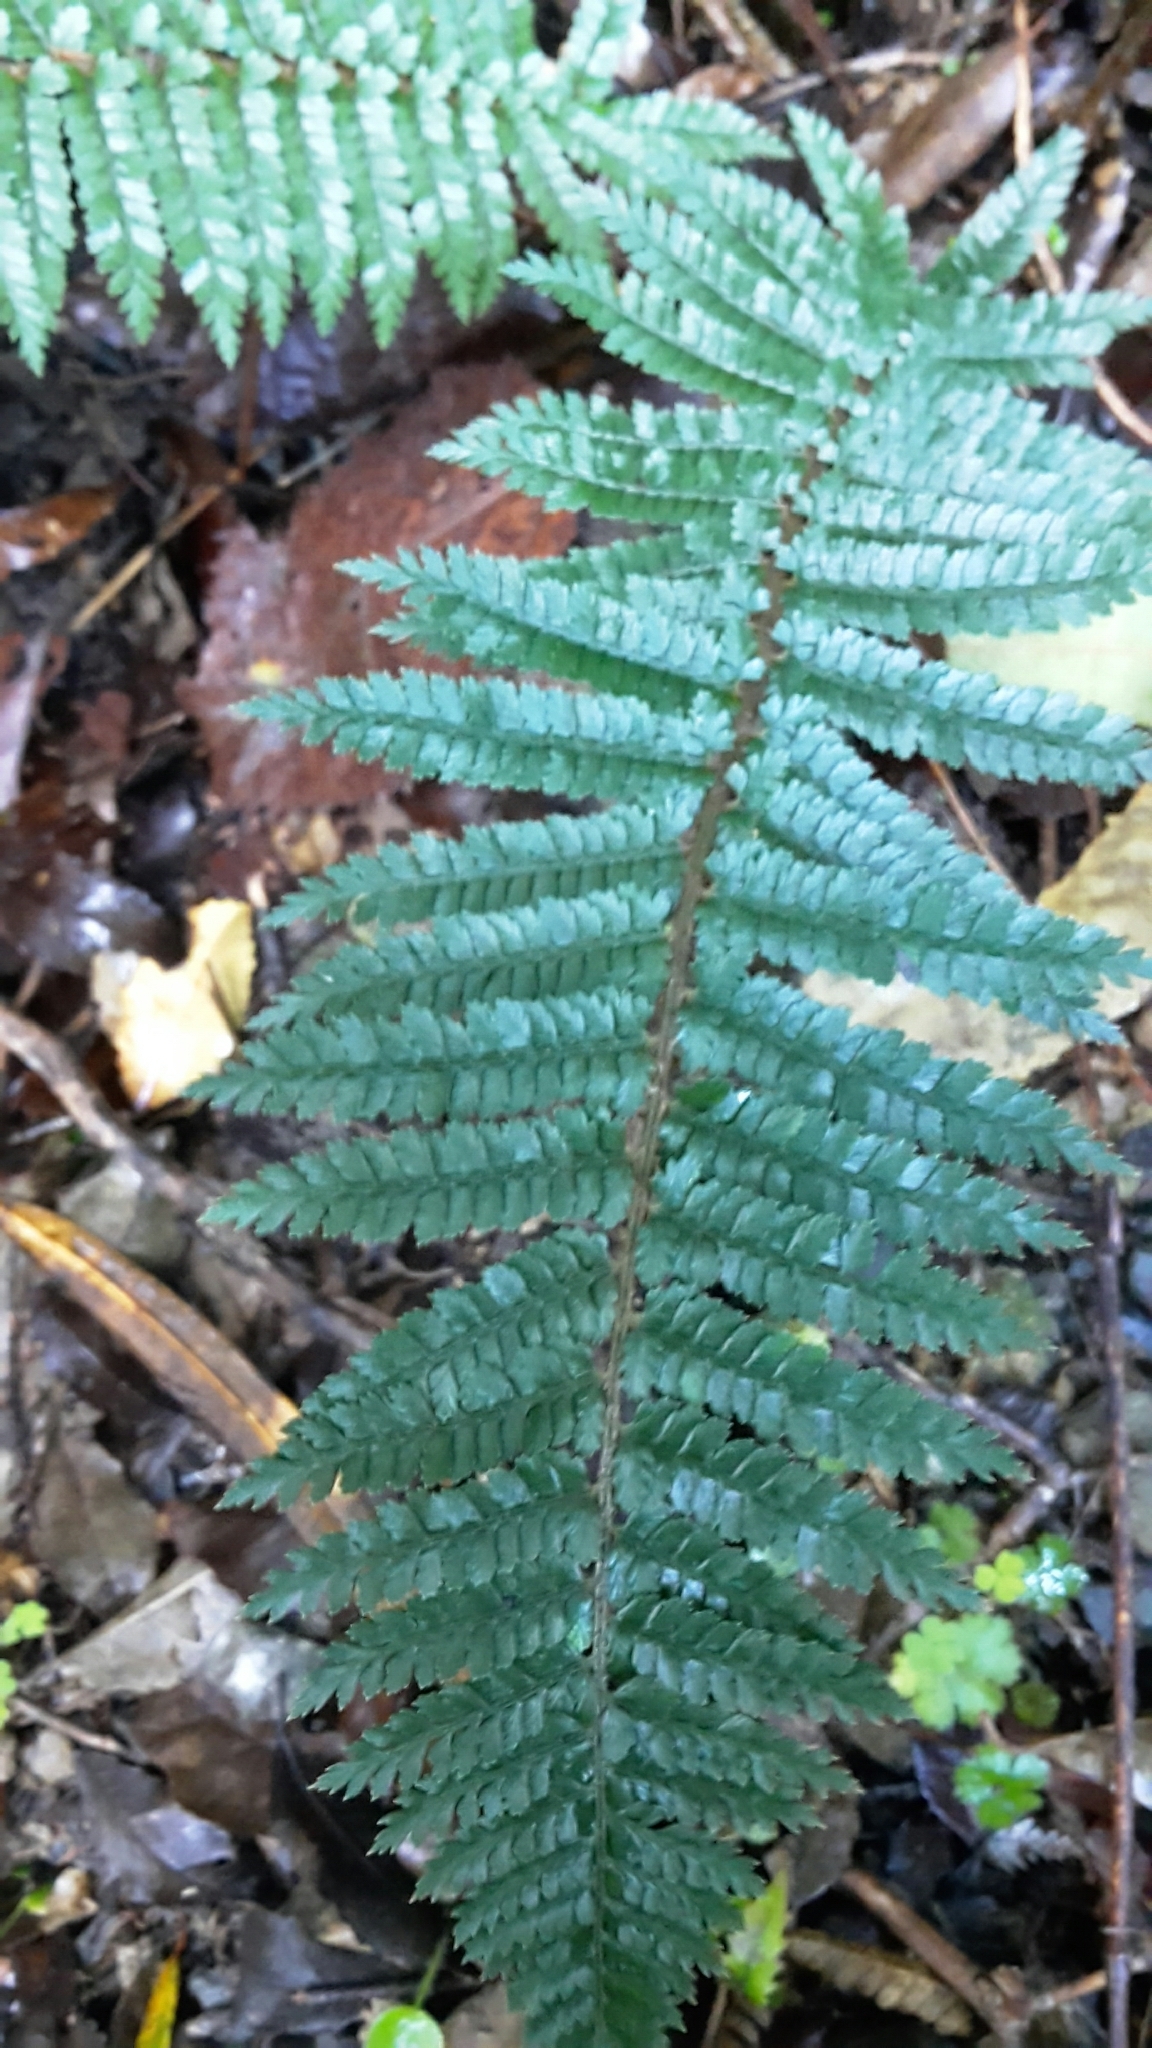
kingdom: Plantae
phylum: Tracheophyta
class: Polypodiopsida
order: Polypodiales
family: Dryopteridaceae
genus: Polystichum
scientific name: Polystichum vestitum
